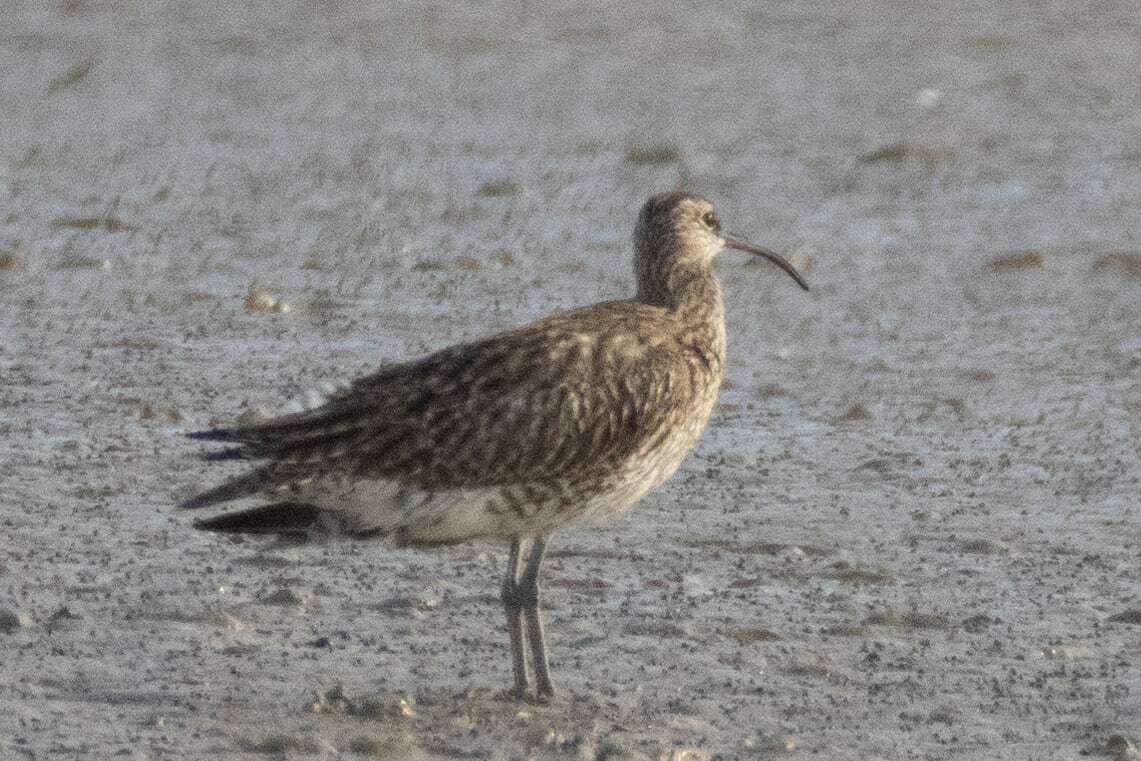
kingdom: Animalia
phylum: Chordata
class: Aves
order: Charadriiformes
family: Scolopacidae
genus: Numenius
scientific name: Numenius phaeopus
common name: Whimbrel
